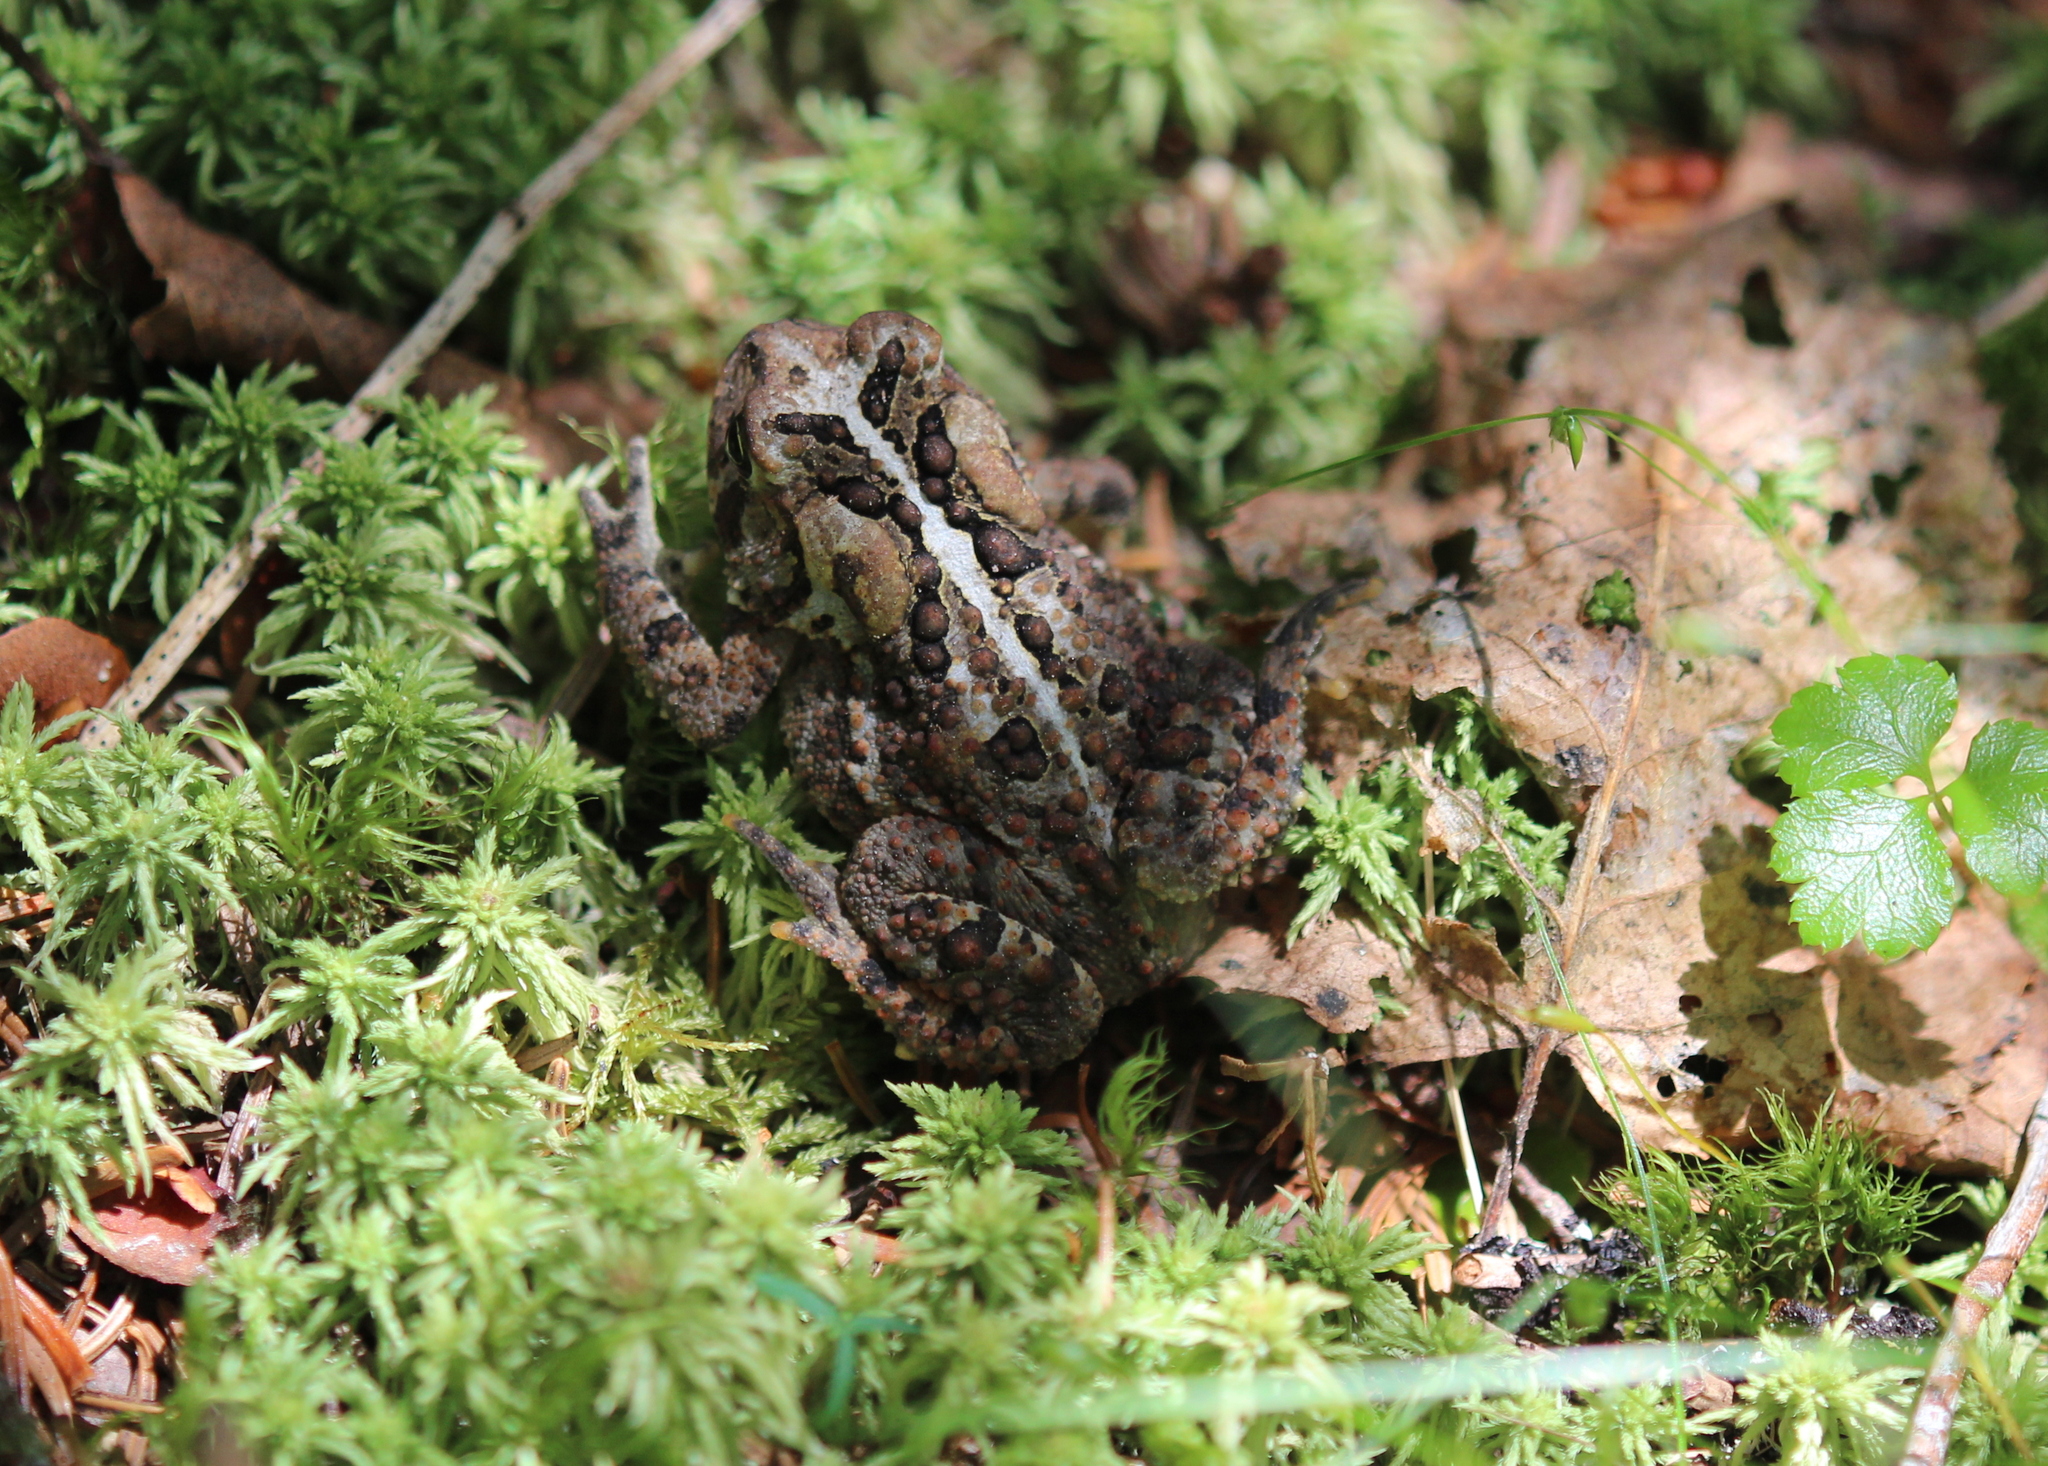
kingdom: Animalia
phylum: Chordata
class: Amphibia
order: Anura
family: Bufonidae
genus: Anaxyrus
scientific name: Anaxyrus americanus
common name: American toad
